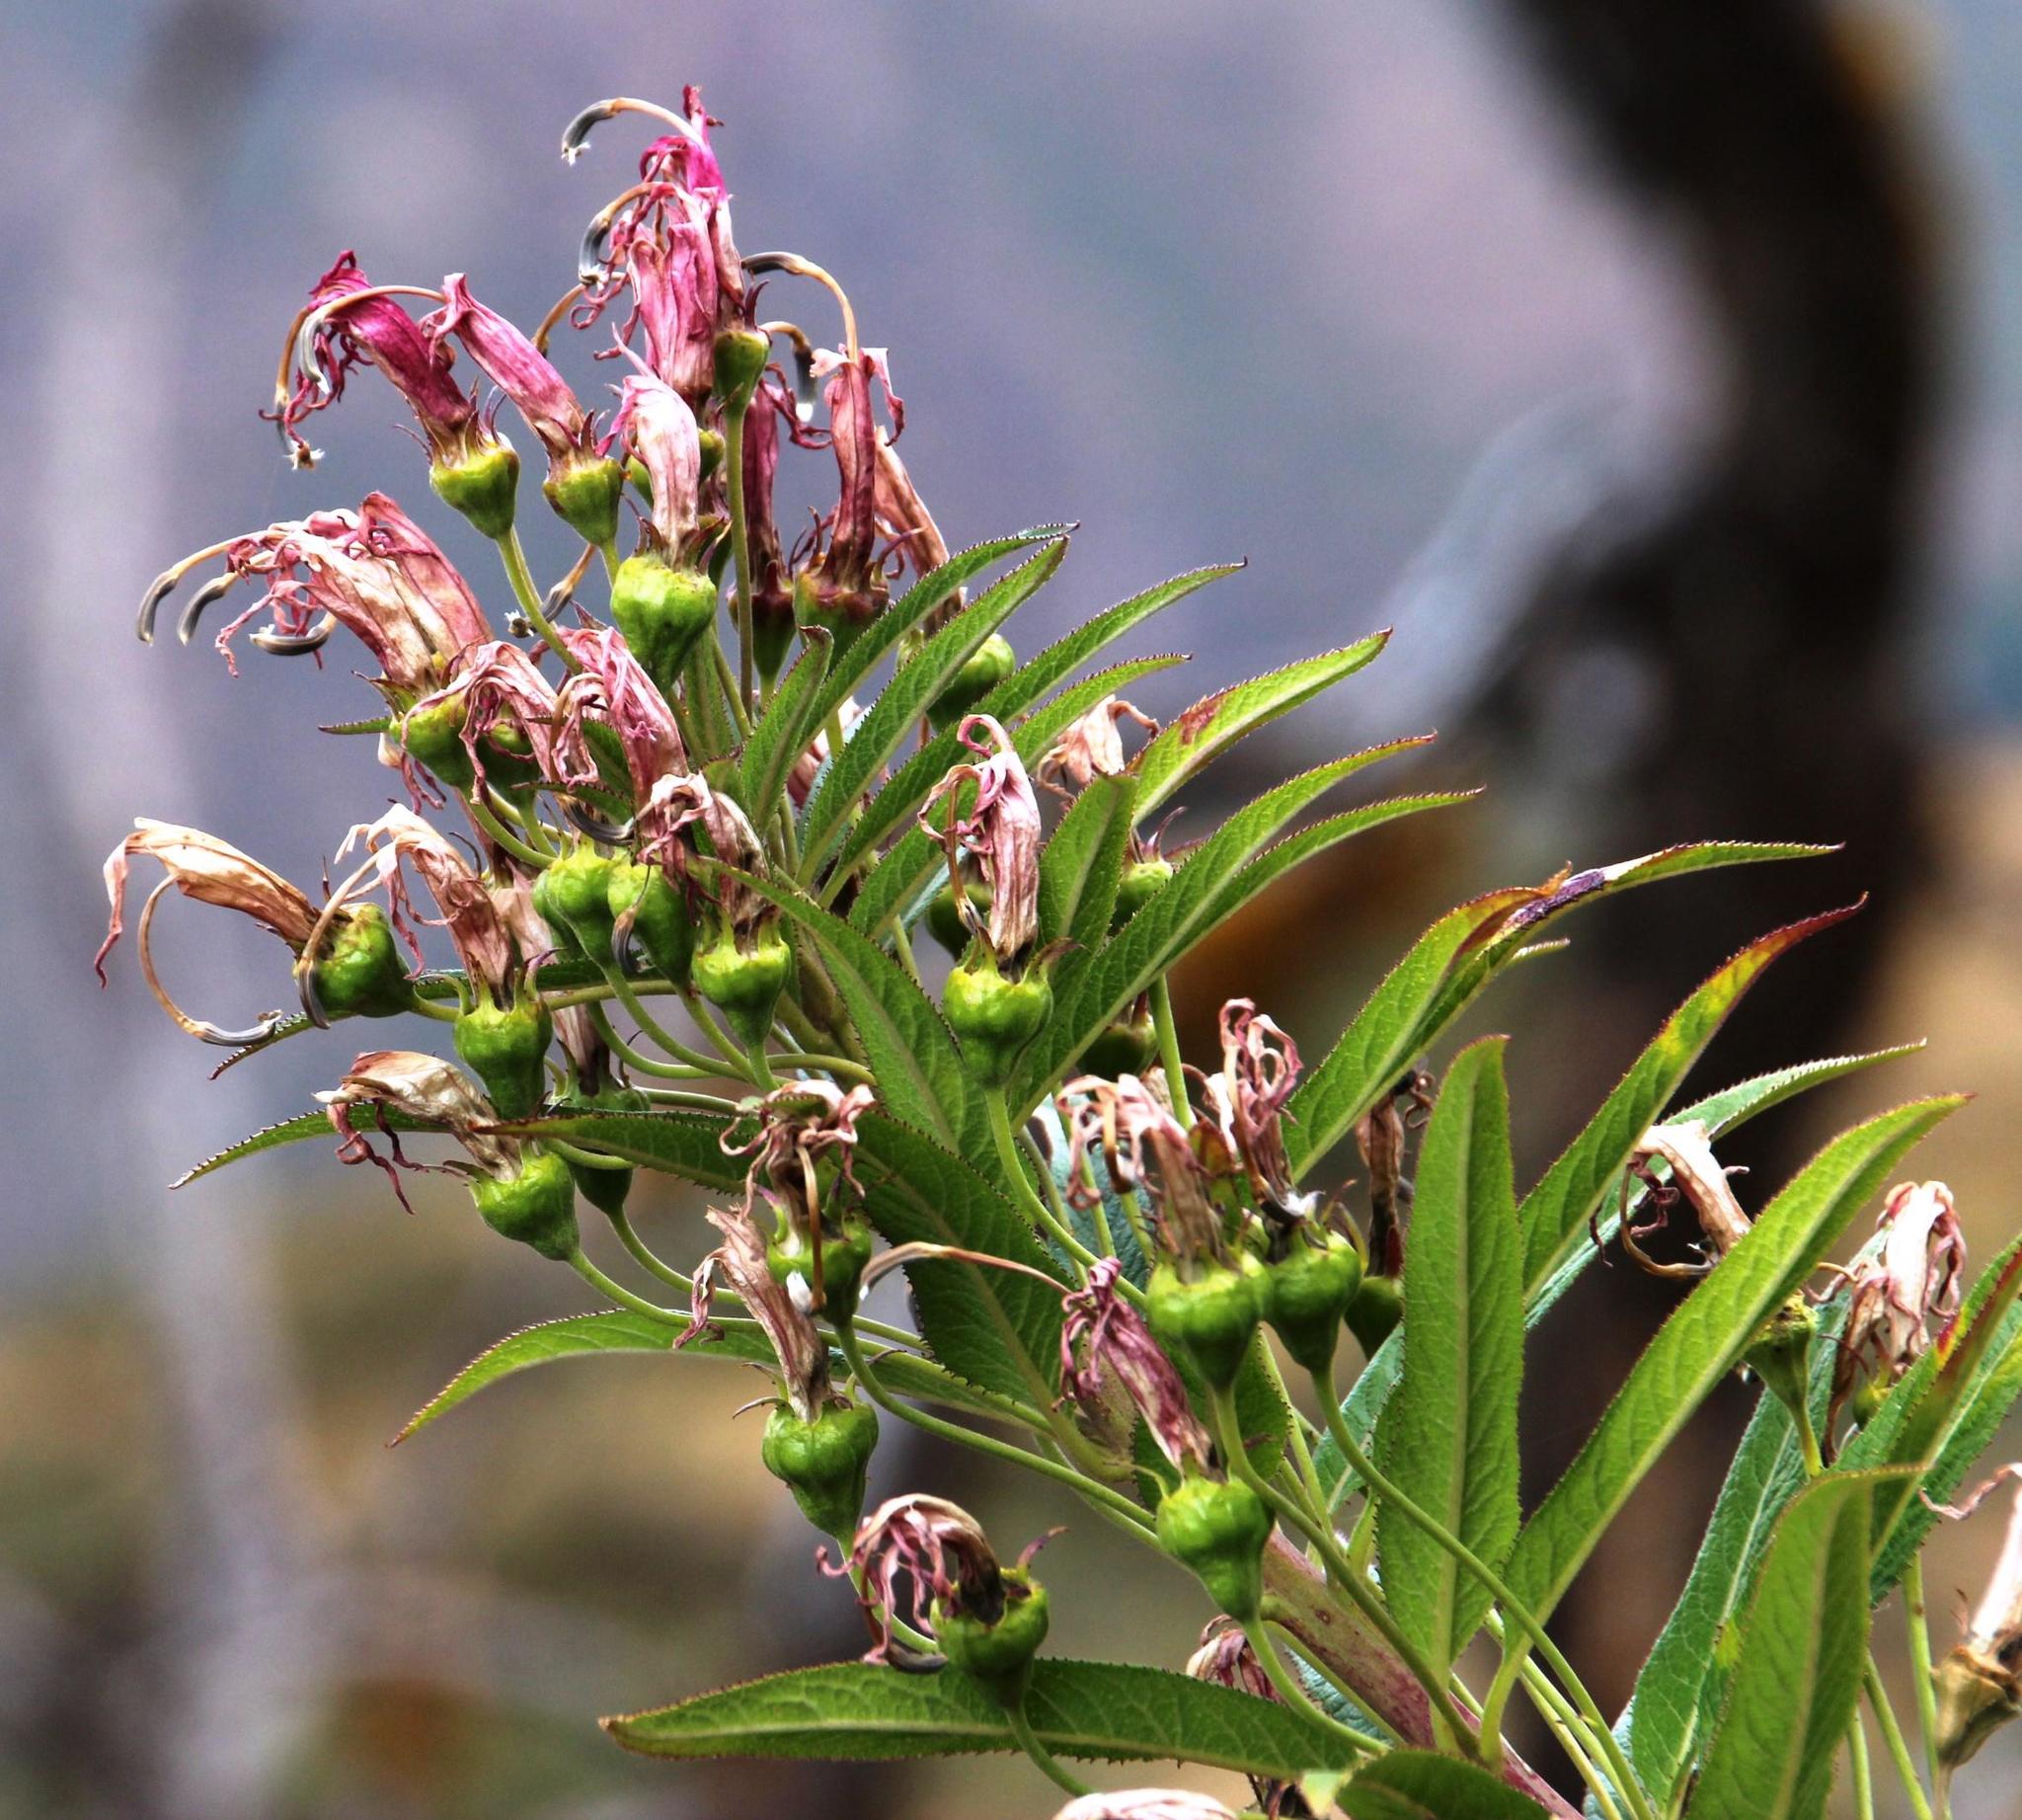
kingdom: Plantae
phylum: Tracheophyta
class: Magnoliopsida
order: Asterales
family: Campanulaceae
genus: Siphocampylus
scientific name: Siphocampylus krauseanus
